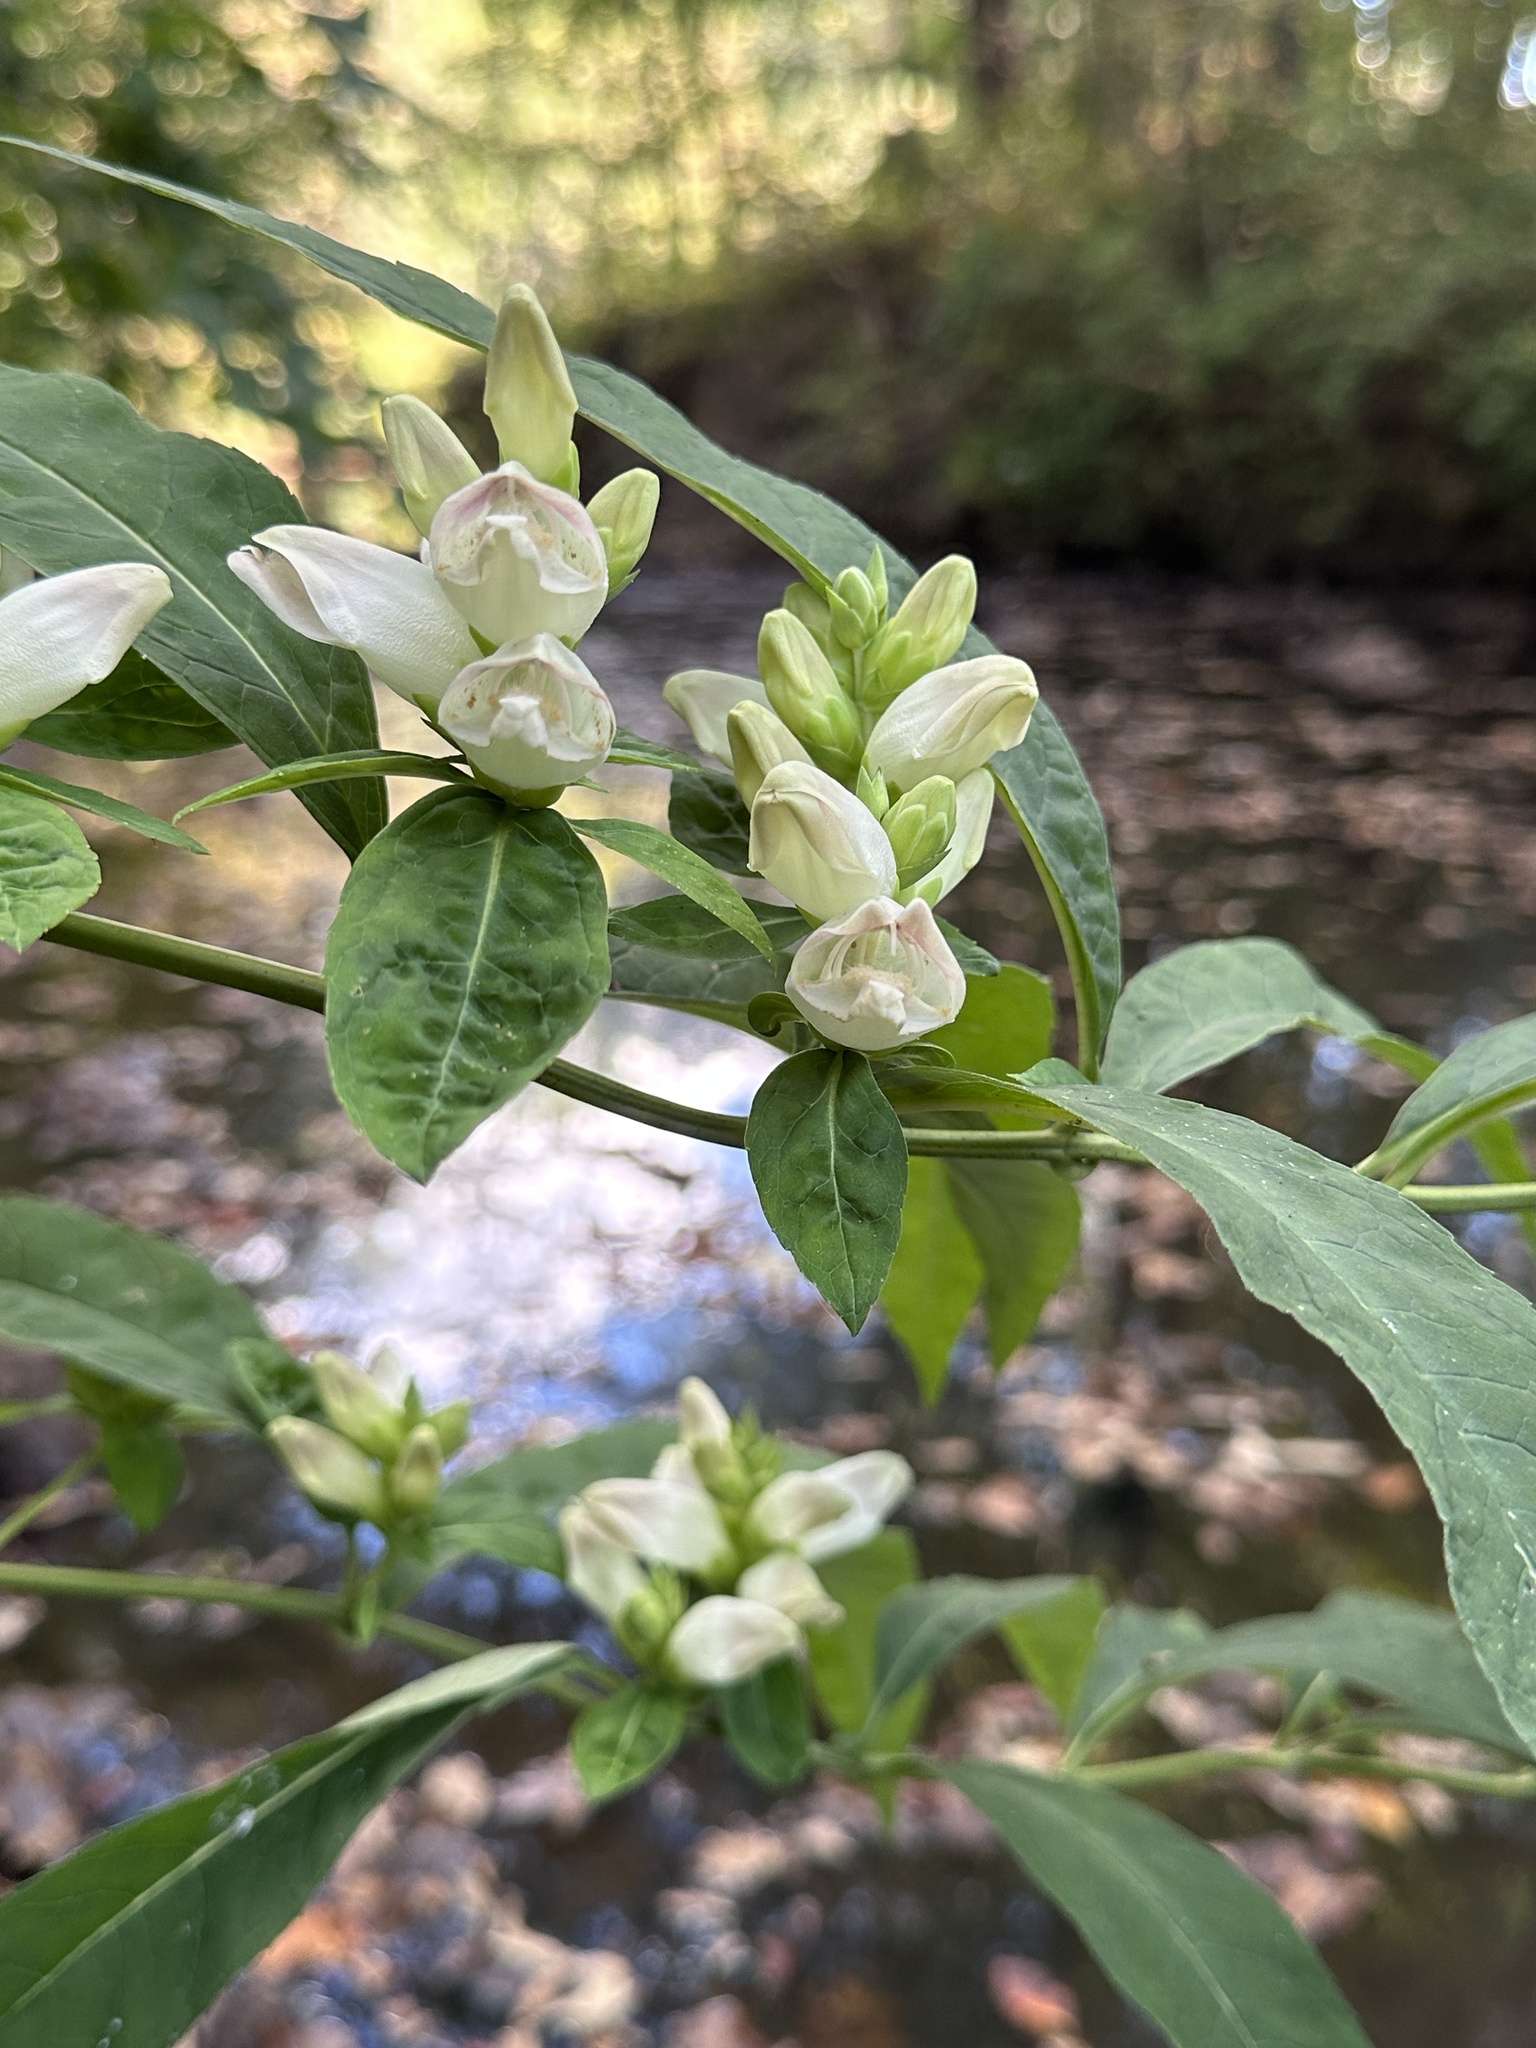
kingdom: Plantae
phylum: Tracheophyta
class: Magnoliopsida
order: Lamiales
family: Plantaginaceae
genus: Chelone
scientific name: Chelone glabra
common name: Snakehead
